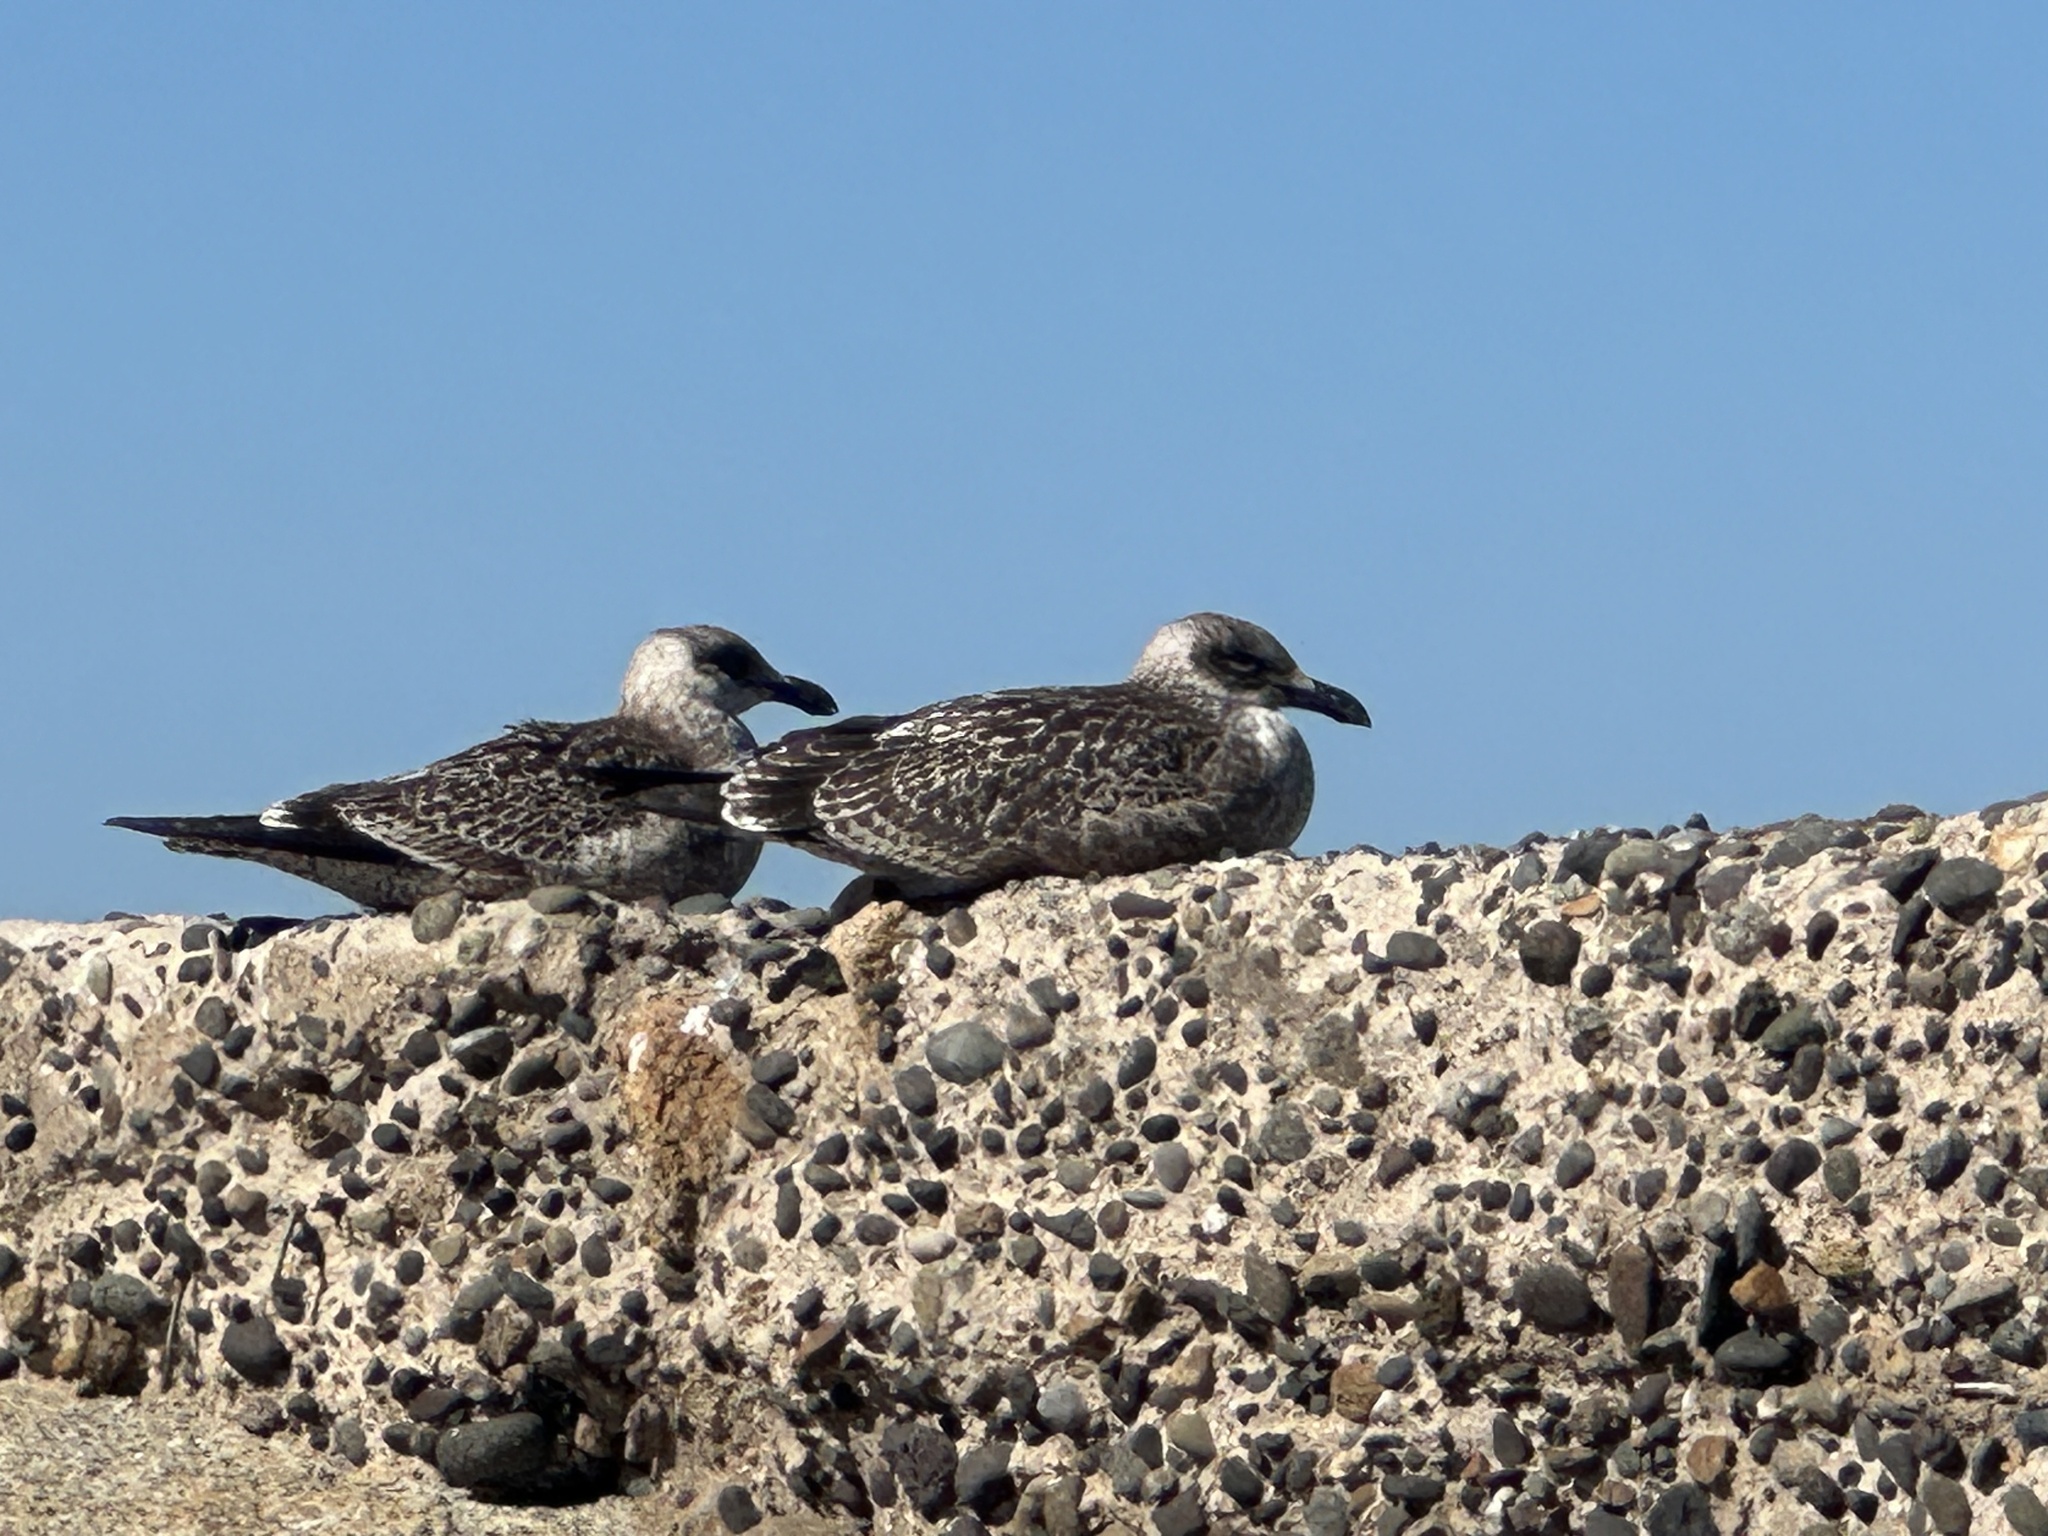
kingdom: Animalia
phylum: Chordata
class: Aves
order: Charadriiformes
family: Laridae
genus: Larus
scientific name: Larus dominicanus
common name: Kelp gull
